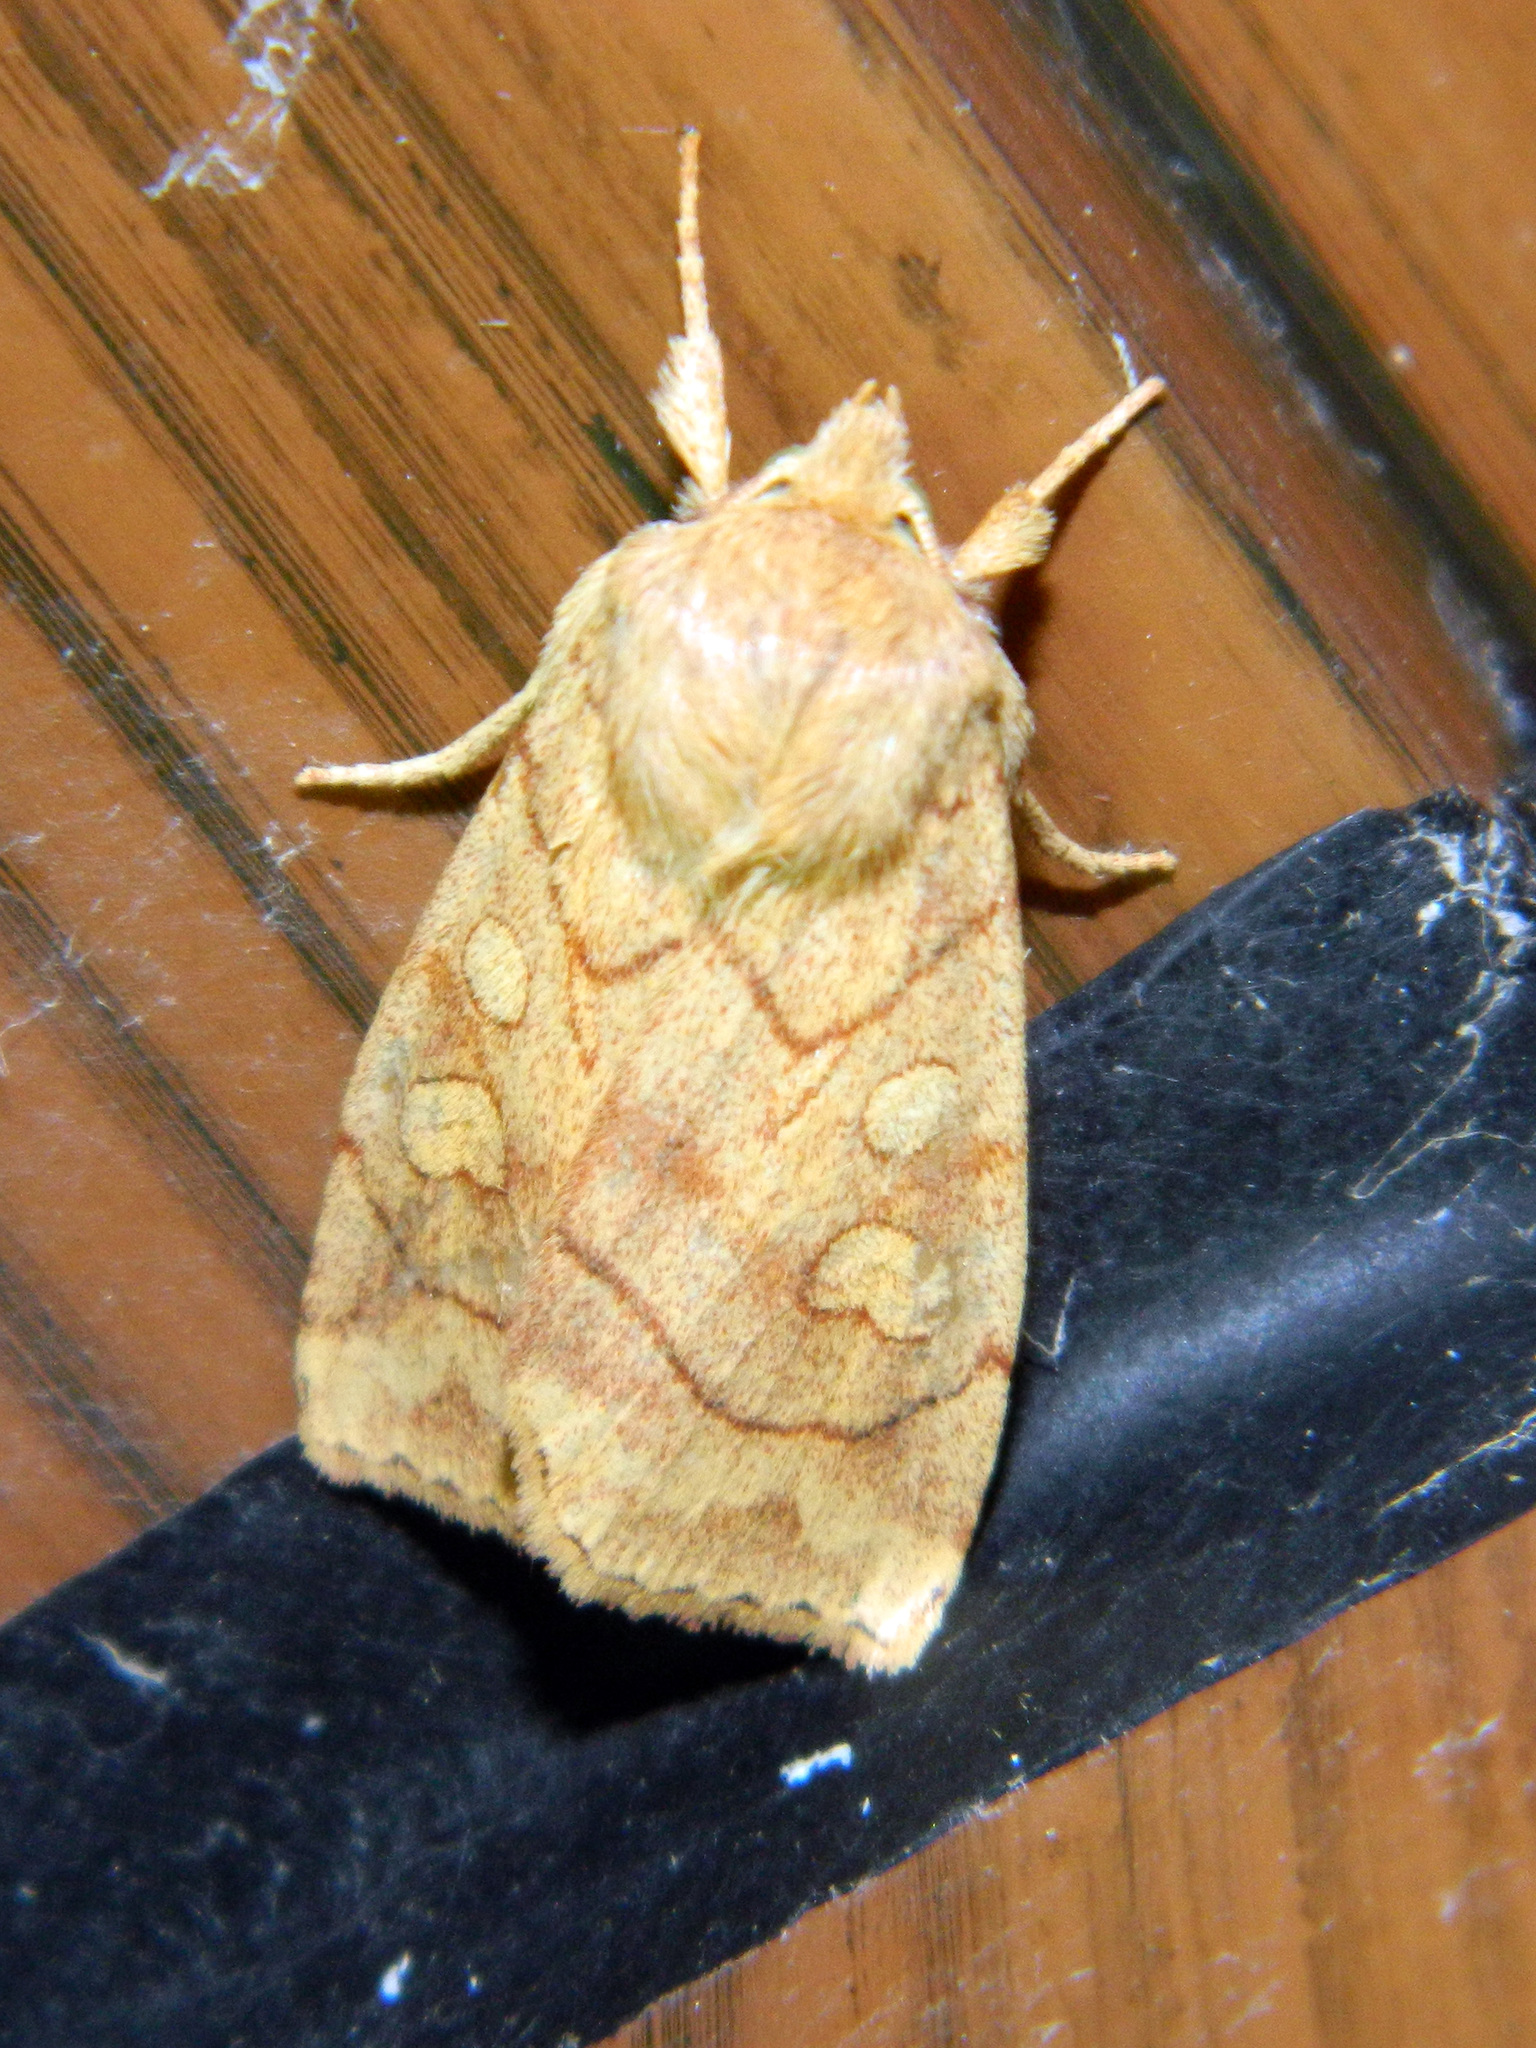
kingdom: Animalia
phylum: Arthropoda
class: Insecta
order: Lepidoptera
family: Noctuidae
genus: Enargia
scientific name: Enargia decolor
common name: Aspen twoleaf tier moth
